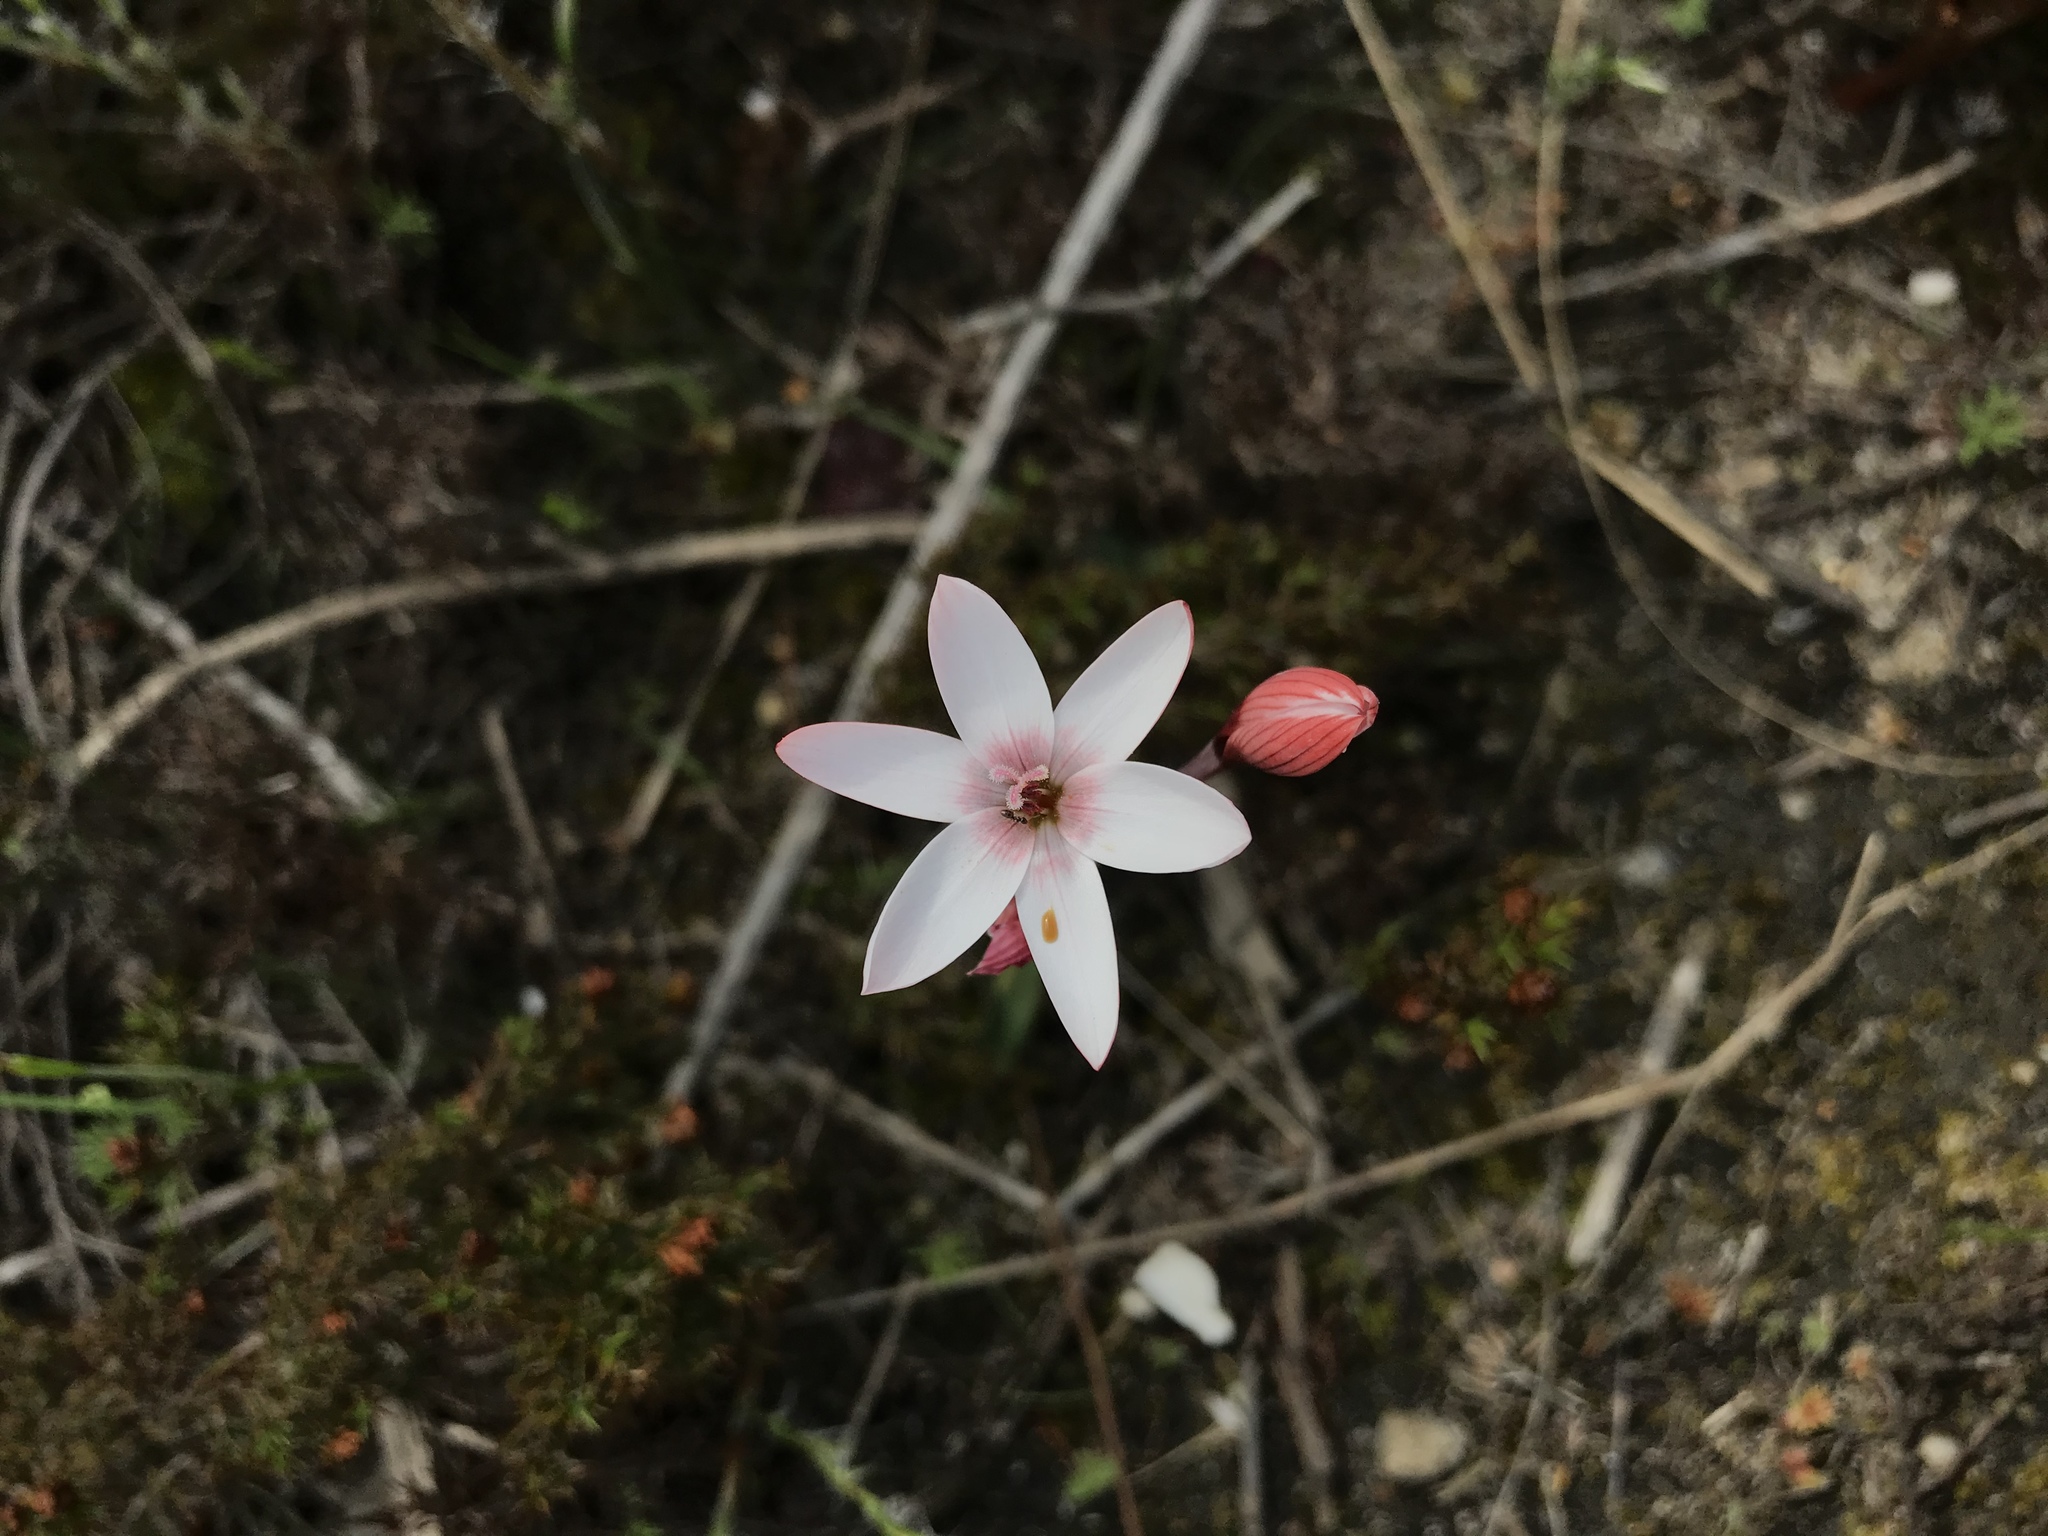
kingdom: Plantae
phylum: Tracheophyta
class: Liliopsida
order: Asparagales
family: Iridaceae
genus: Geissorhiza
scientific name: Geissorhiza ovata
